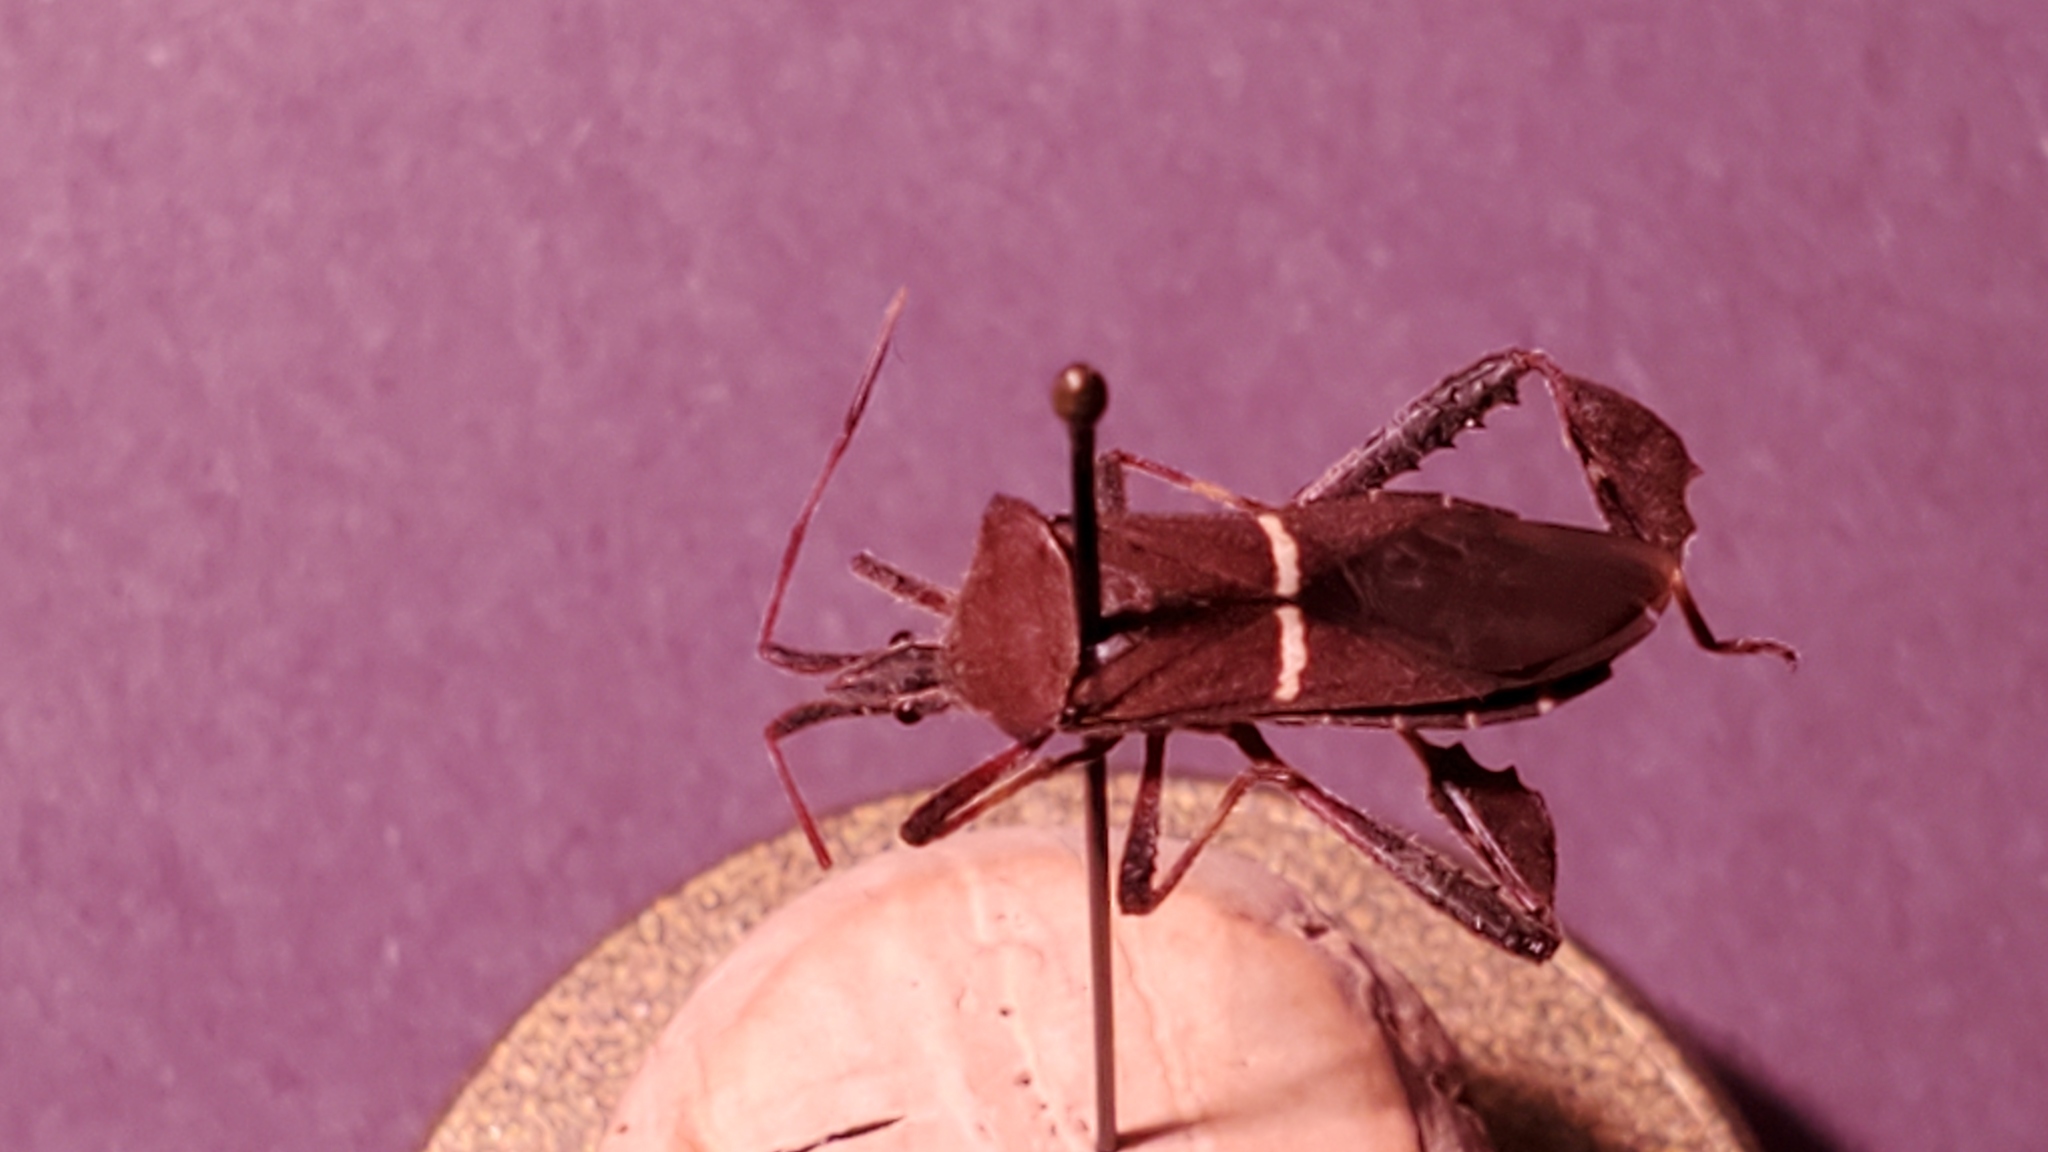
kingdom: Animalia
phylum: Arthropoda
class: Insecta
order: Hemiptera
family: Coreidae
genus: Leptoglossus
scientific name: Leptoglossus phyllopus
